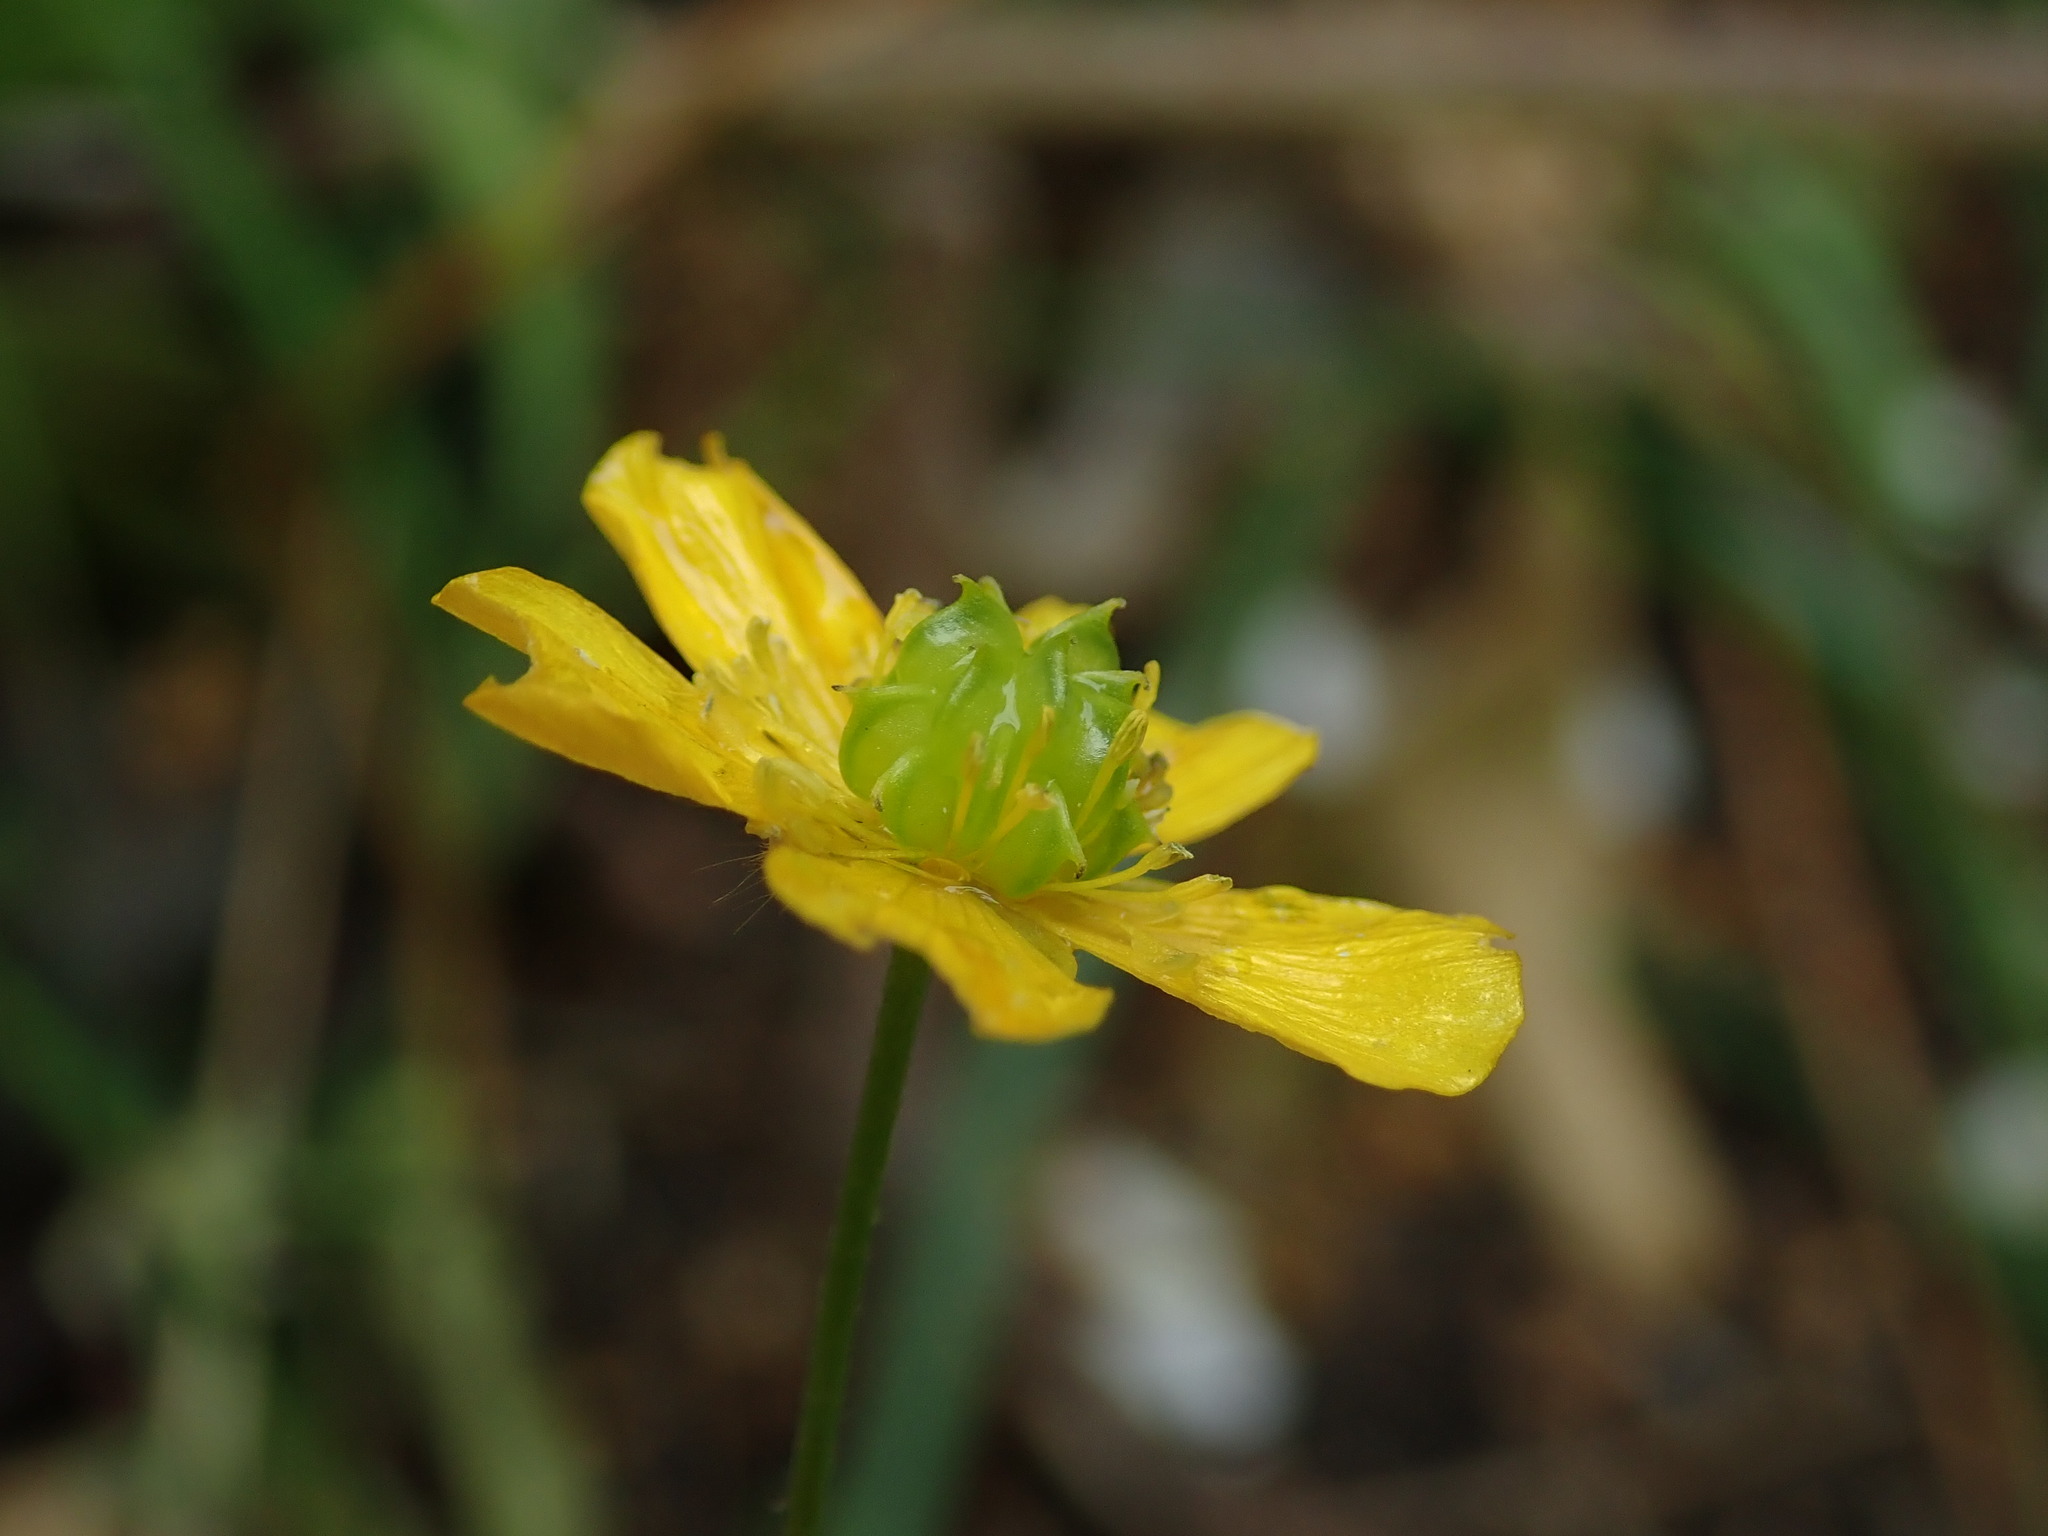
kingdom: Plantae
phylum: Tracheophyta
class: Magnoliopsida
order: Ranunculales
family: Ranunculaceae
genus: Ranunculus
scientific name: Ranunculus acris
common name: Meadow buttercup
